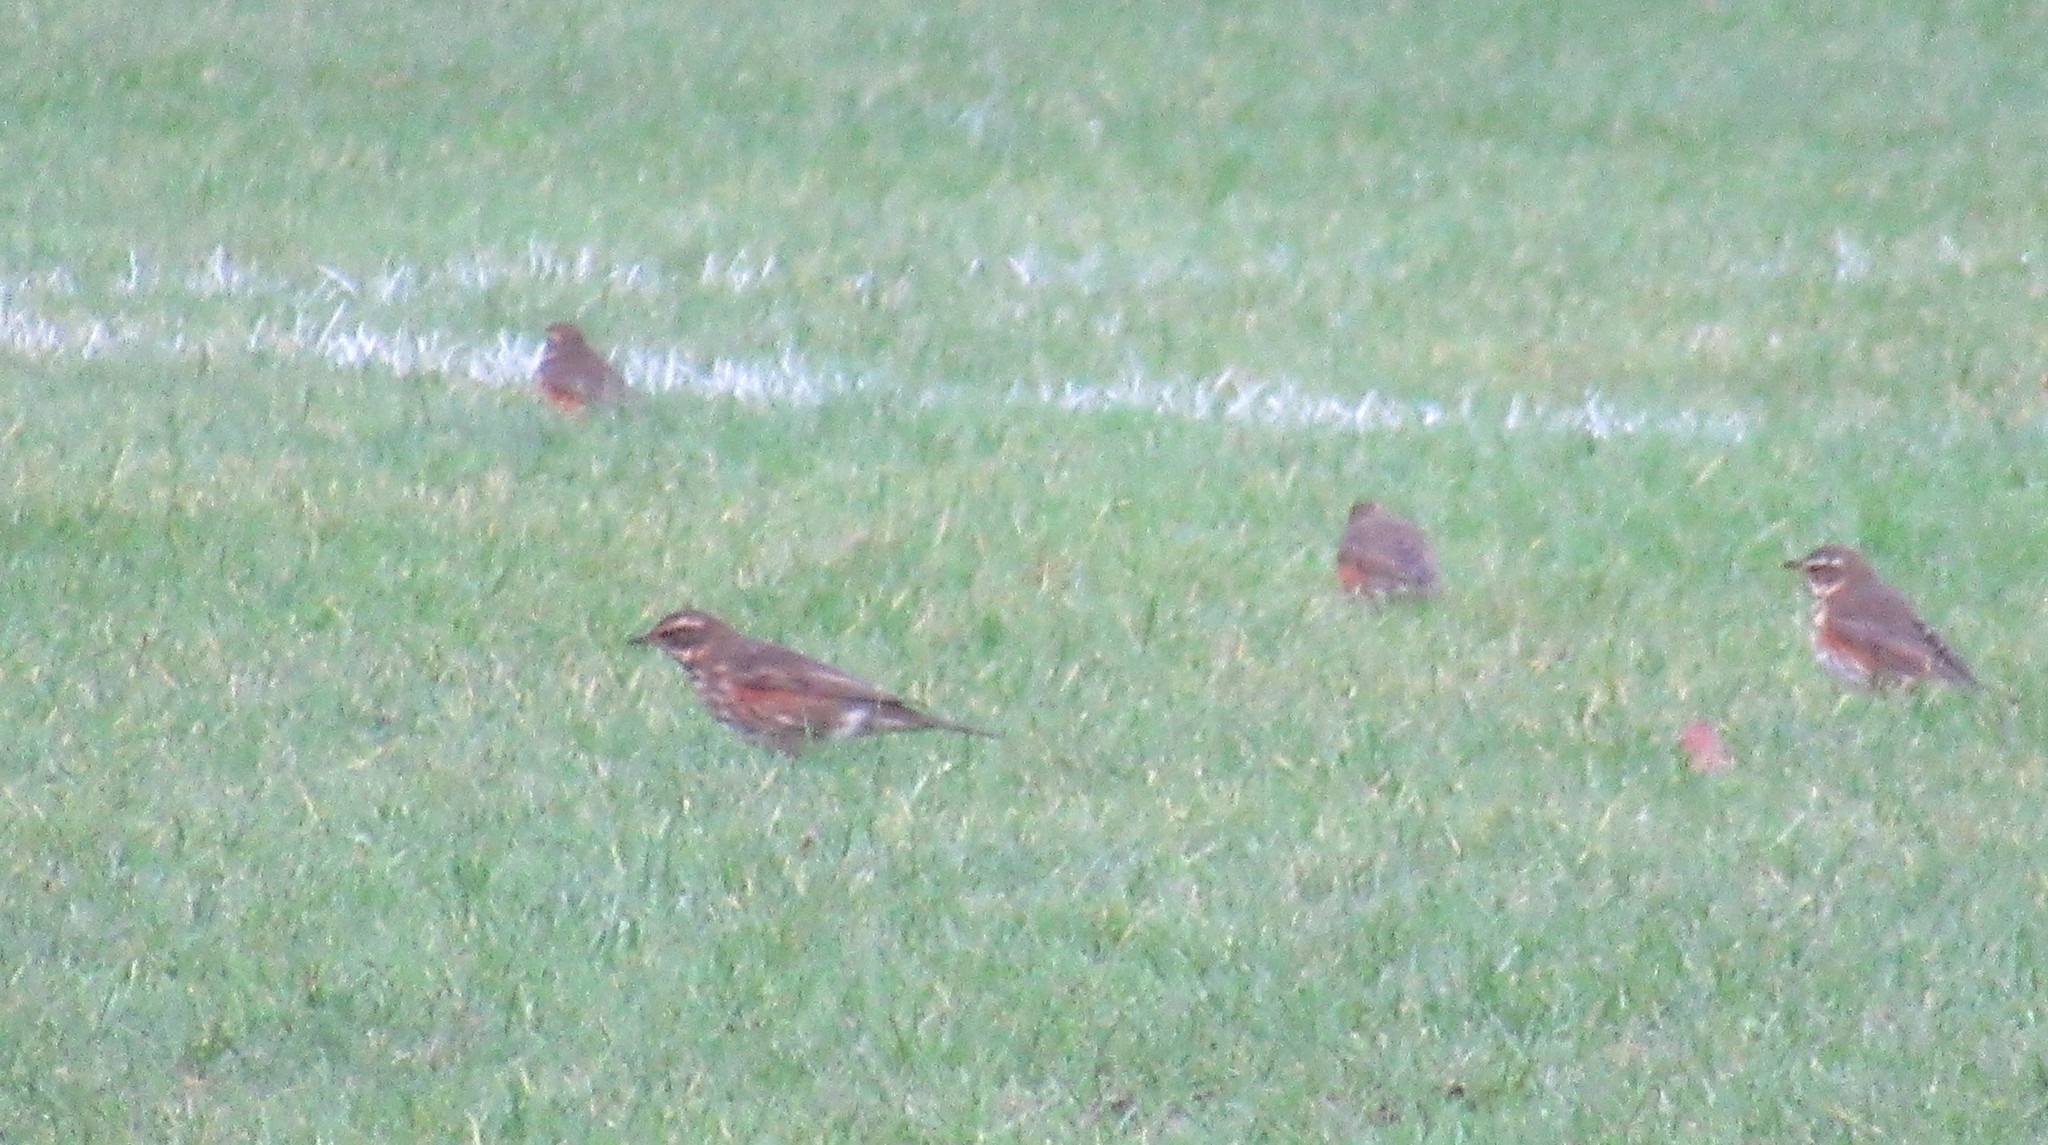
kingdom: Animalia
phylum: Chordata
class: Aves
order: Passeriformes
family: Turdidae
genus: Turdus
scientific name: Turdus iliacus
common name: Redwing
